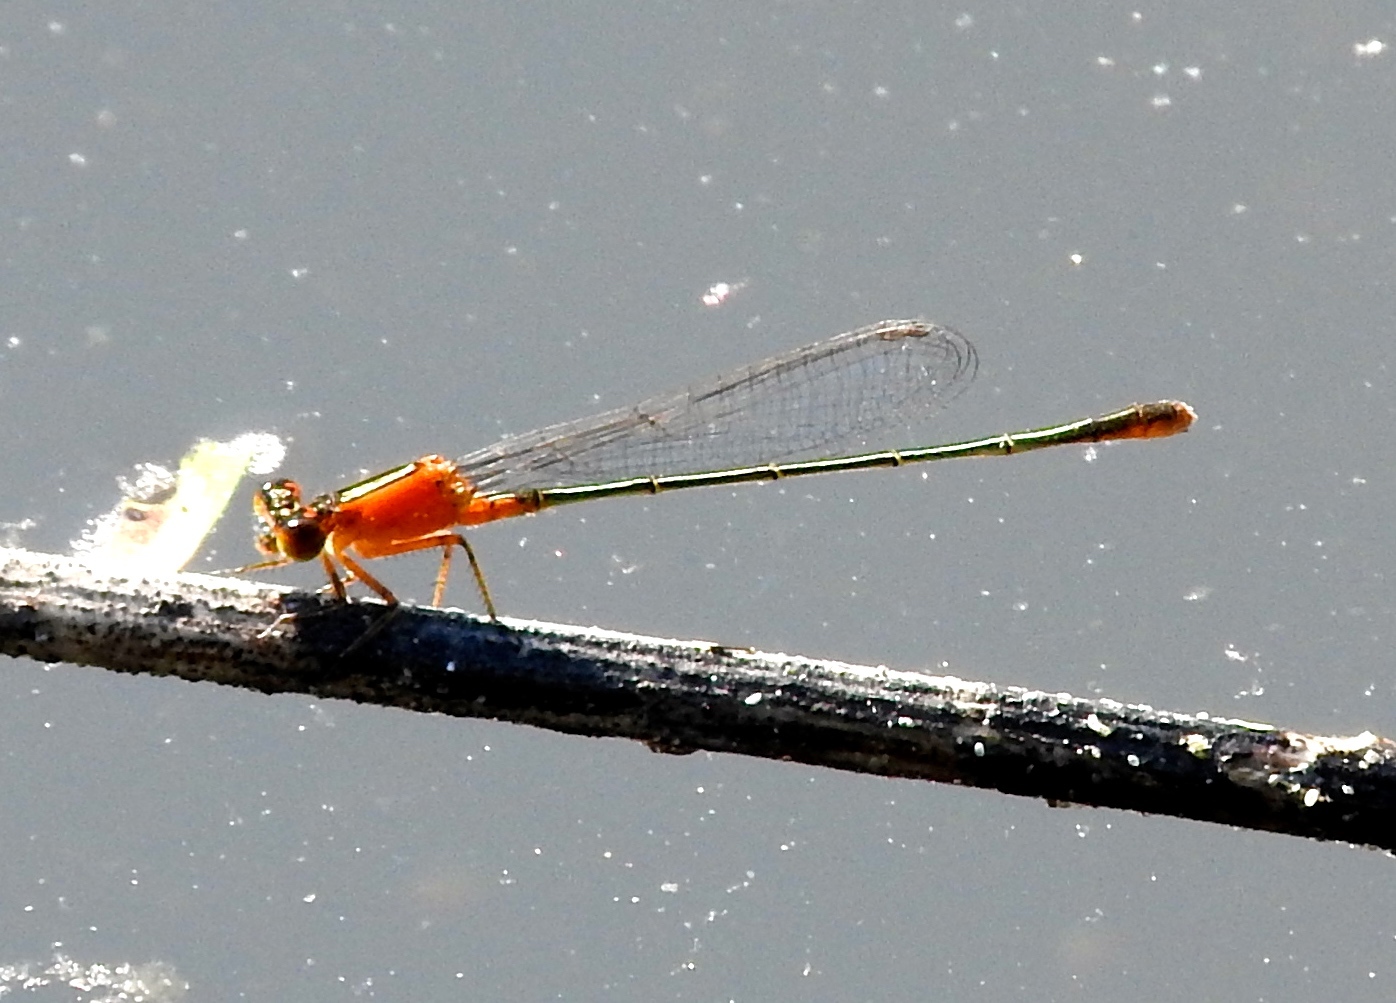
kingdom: Animalia
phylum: Arthropoda
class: Insecta
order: Odonata
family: Coenagrionidae
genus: Ischnura
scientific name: Ischnura ramburii
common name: Rambur's forktail
